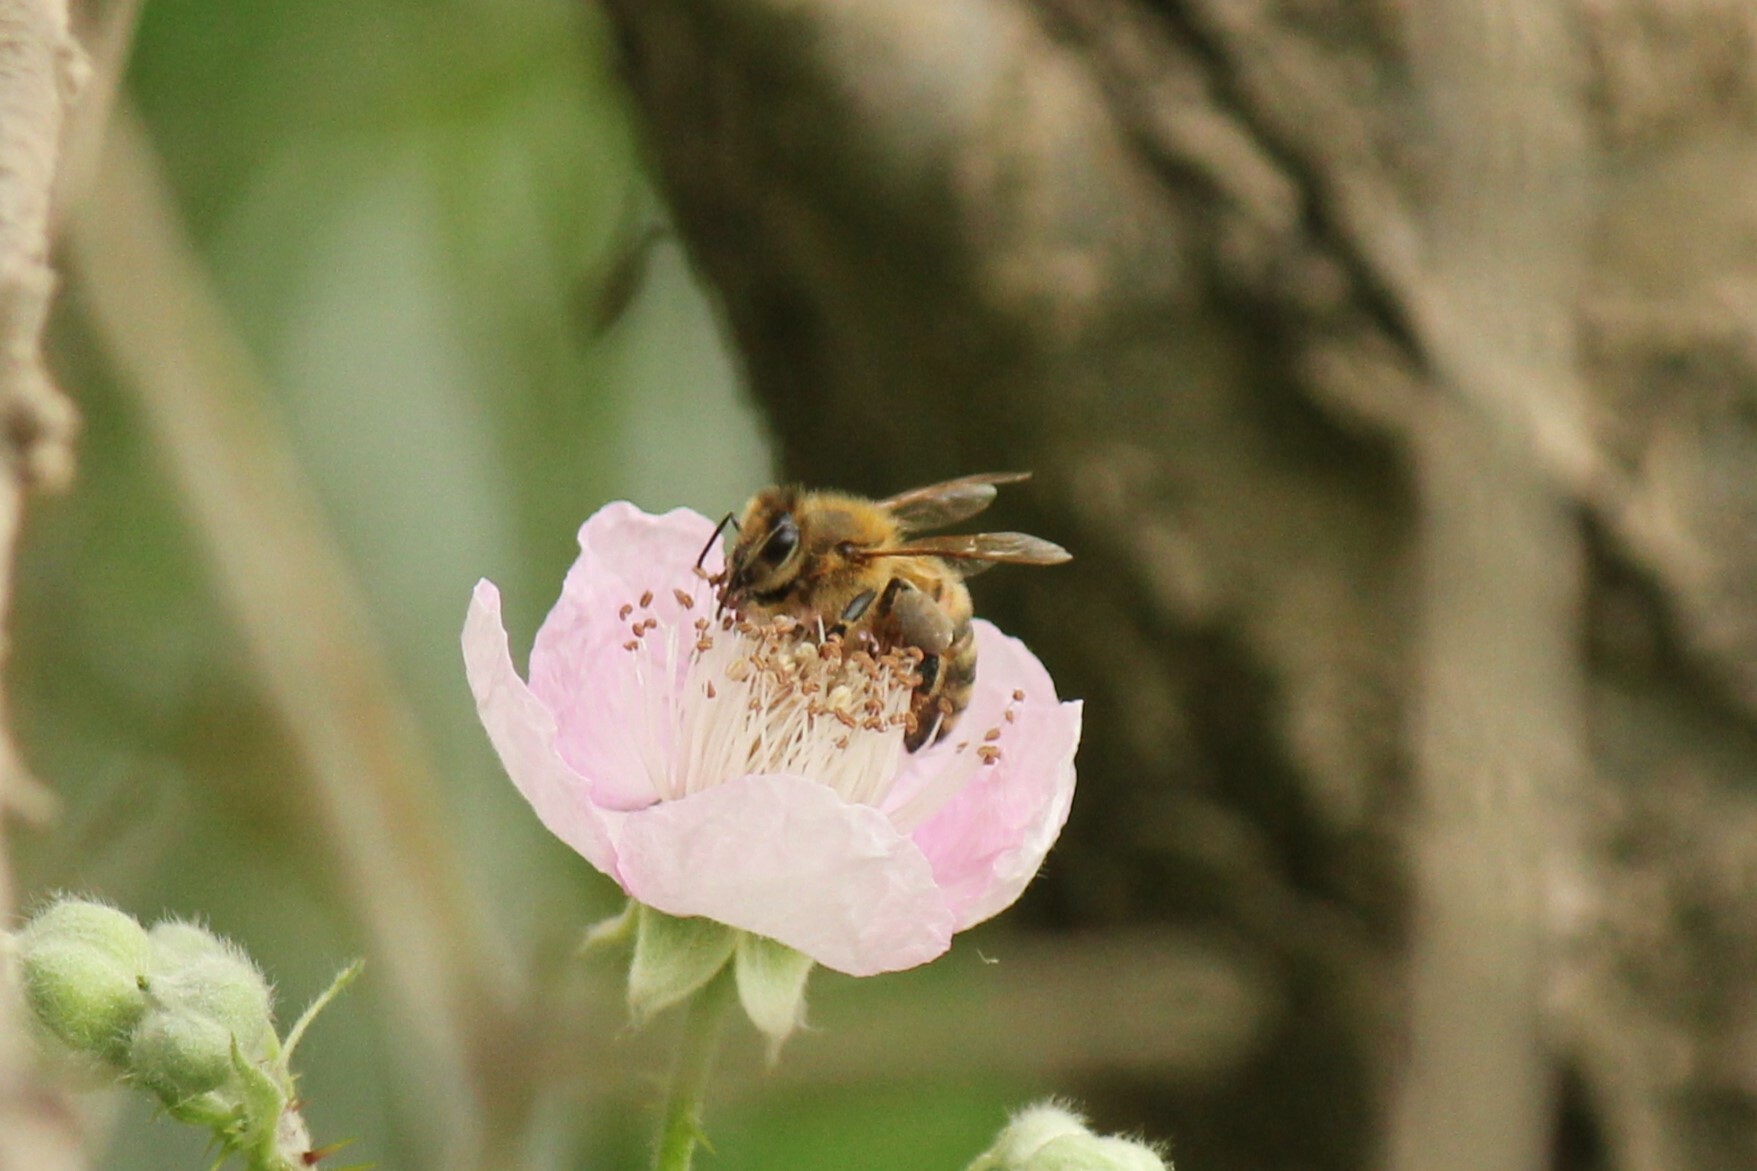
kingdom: Animalia
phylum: Arthropoda
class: Insecta
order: Hymenoptera
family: Apidae
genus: Apis
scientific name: Apis mellifera
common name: Honey bee
